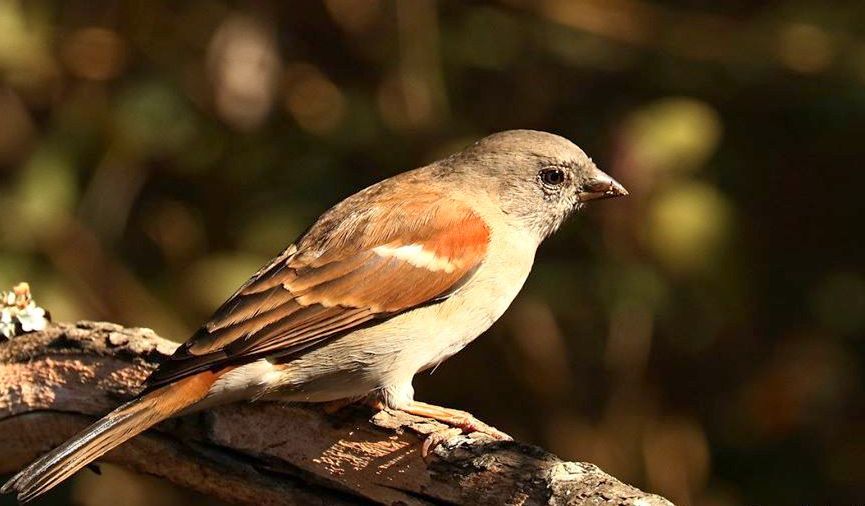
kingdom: Animalia
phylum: Chordata
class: Aves
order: Passeriformes
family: Passeridae
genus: Passer
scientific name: Passer diffusus
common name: Southern grey-headed sparrow
